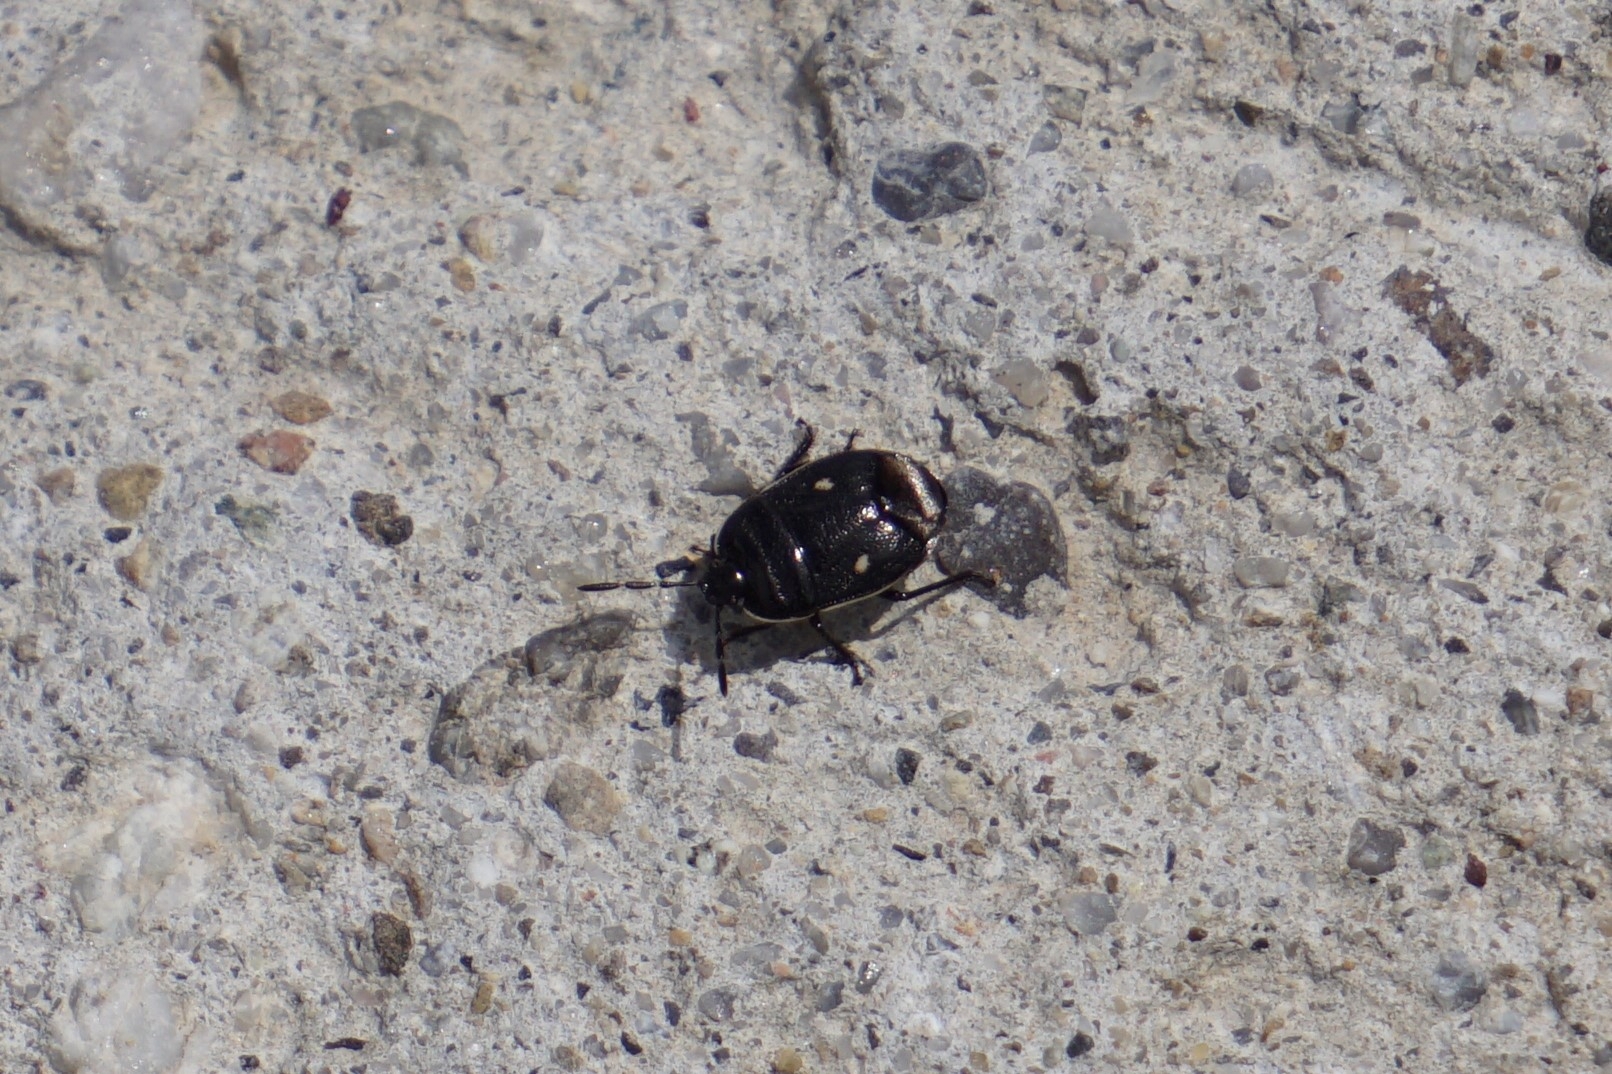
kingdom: Animalia
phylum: Arthropoda
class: Insecta
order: Hemiptera
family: Cydnidae
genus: Adomerus
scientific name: Adomerus biguttatus
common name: Cow wheat shieldbug
